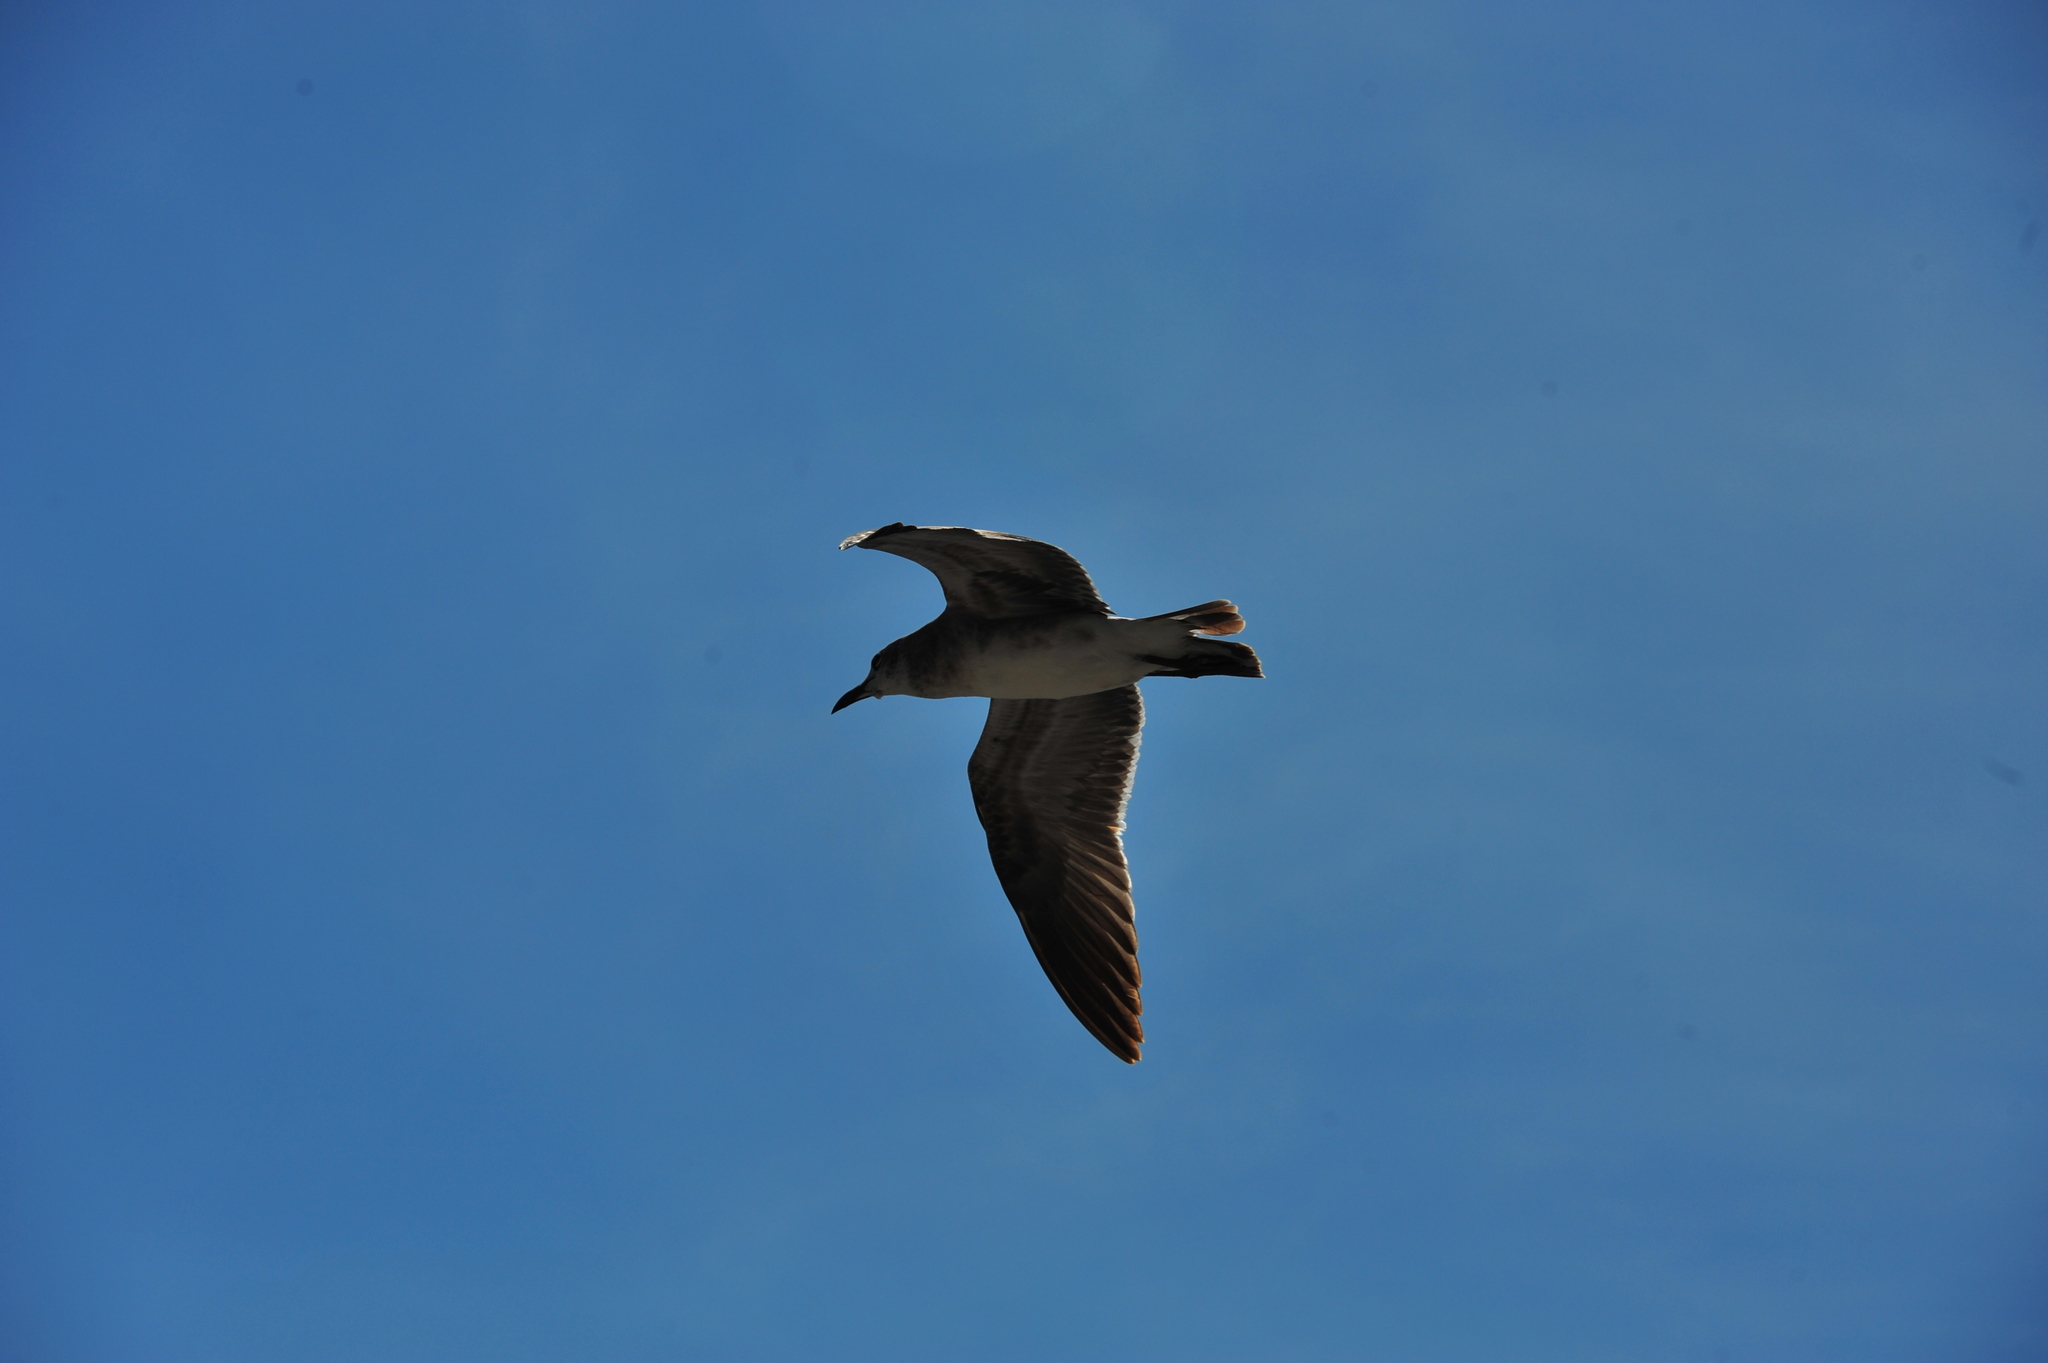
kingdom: Animalia
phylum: Chordata
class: Aves
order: Charadriiformes
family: Laridae
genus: Leucophaeus
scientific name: Leucophaeus atricilla
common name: Laughing gull
